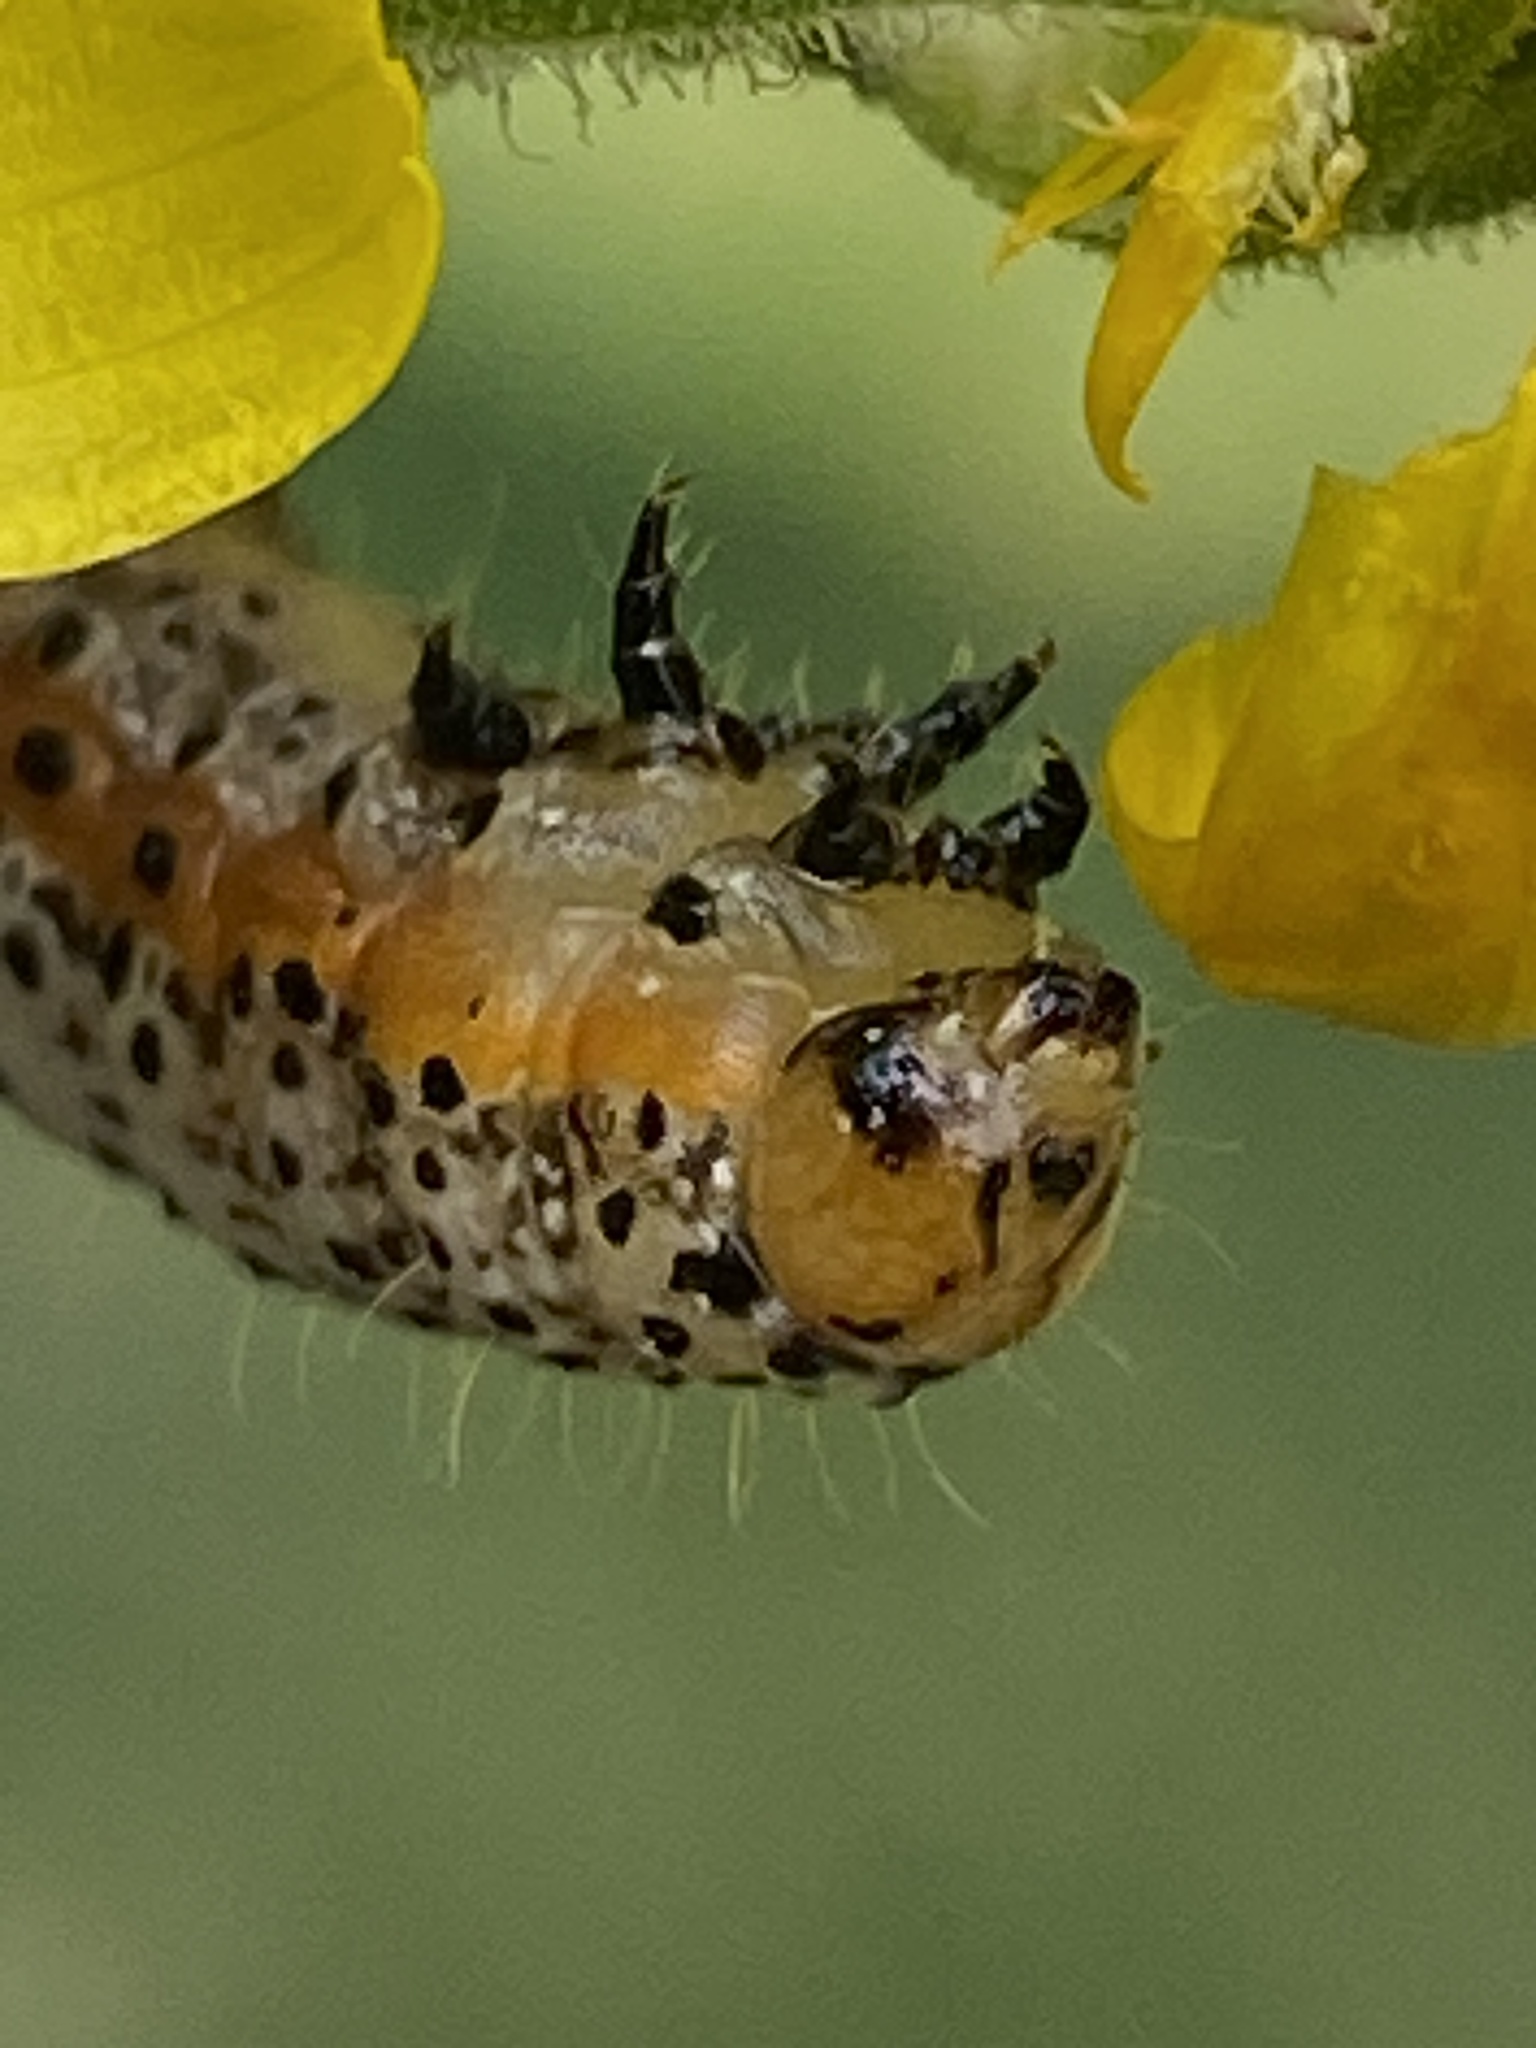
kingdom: Animalia
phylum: Arthropoda
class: Insecta
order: Lepidoptera
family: Noctuidae
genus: Pyrrhia
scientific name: Pyrrhia exprimens
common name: Purple-lined sallow
